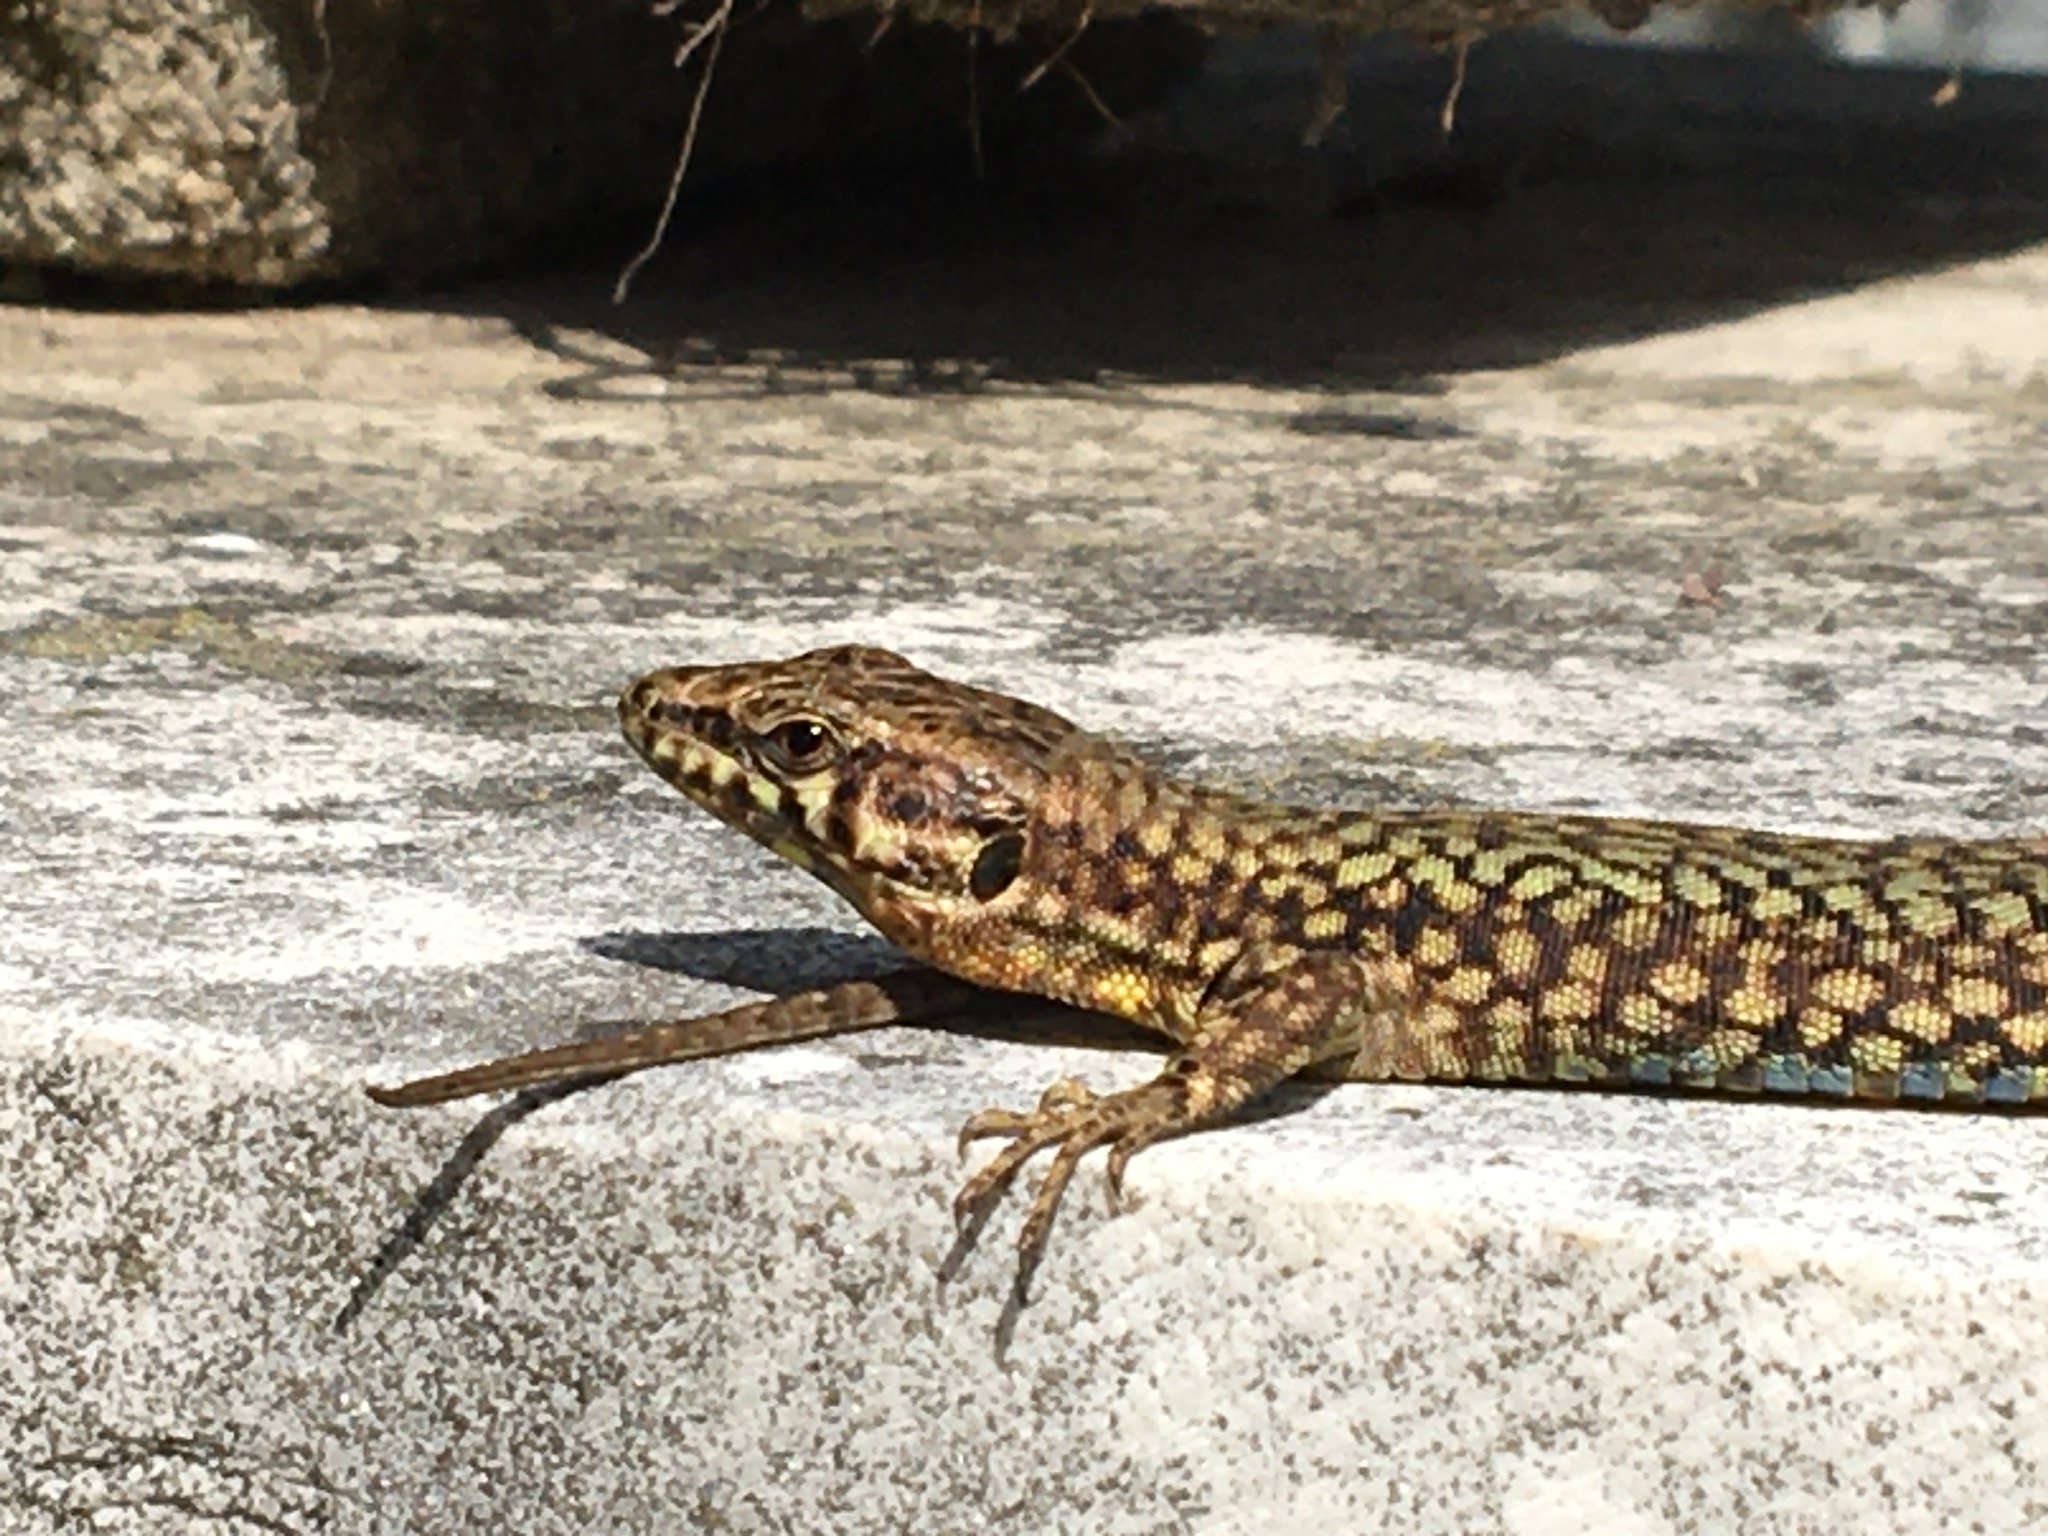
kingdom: Animalia
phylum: Chordata
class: Squamata
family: Lacertidae
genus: Podarcis
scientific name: Podarcis muralis
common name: Common wall lizard
